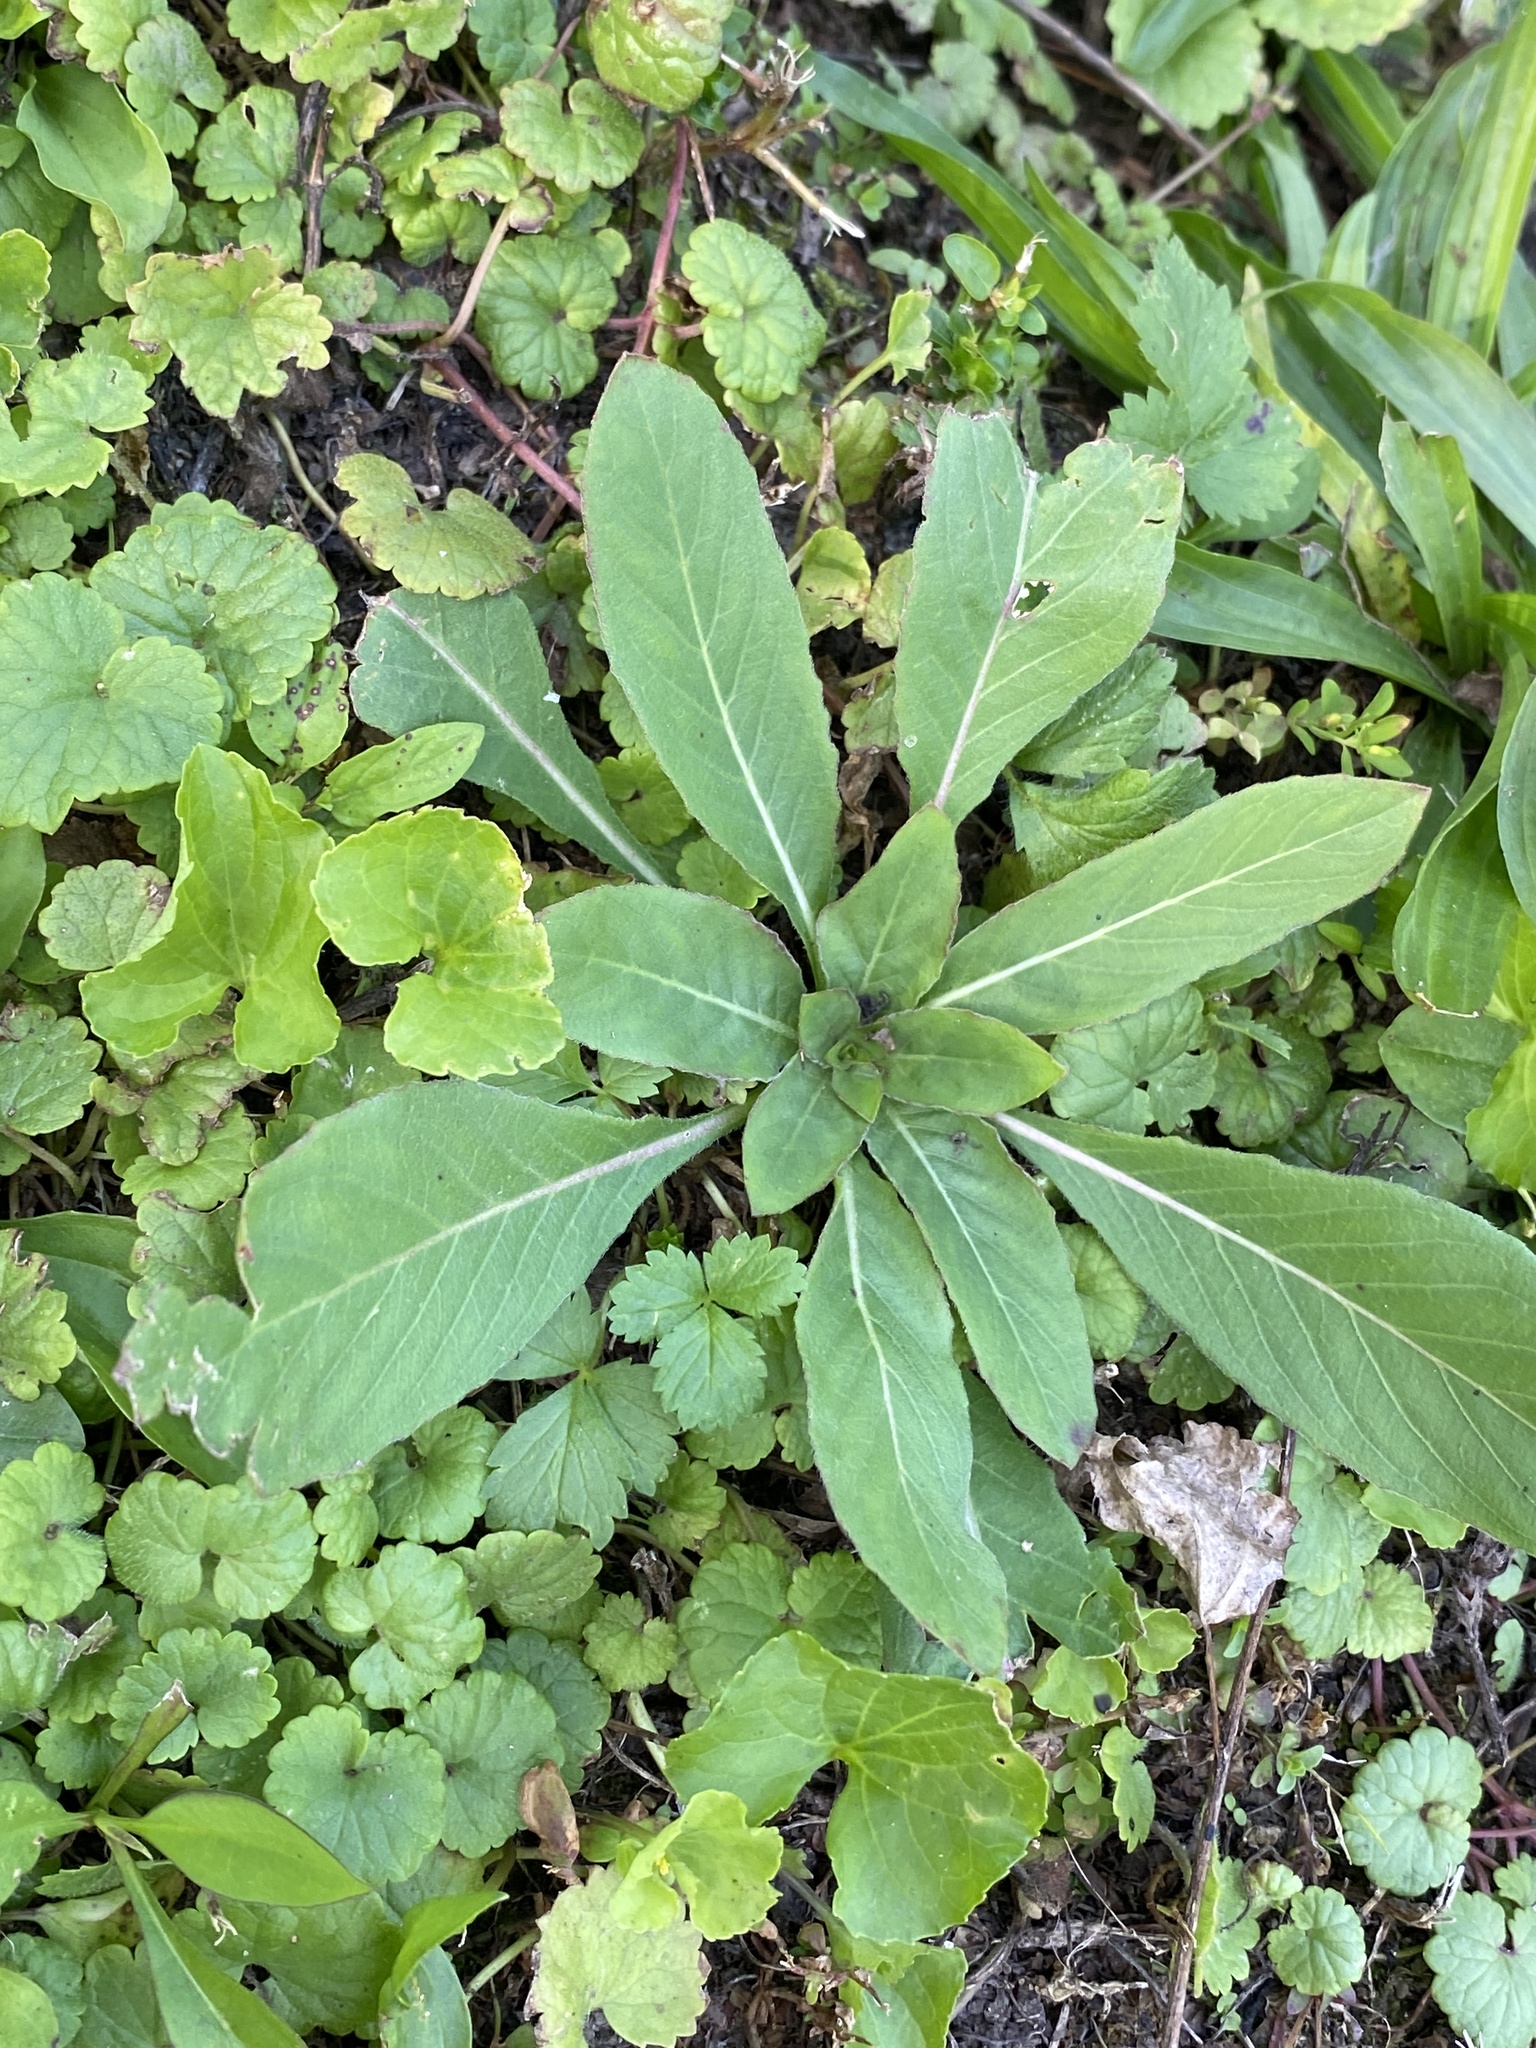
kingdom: Plantae
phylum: Tracheophyta
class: Magnoliopsida
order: Myrtales
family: Onagraceae
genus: Oenothera
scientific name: Oenothera biennis
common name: Common evening-primrose
